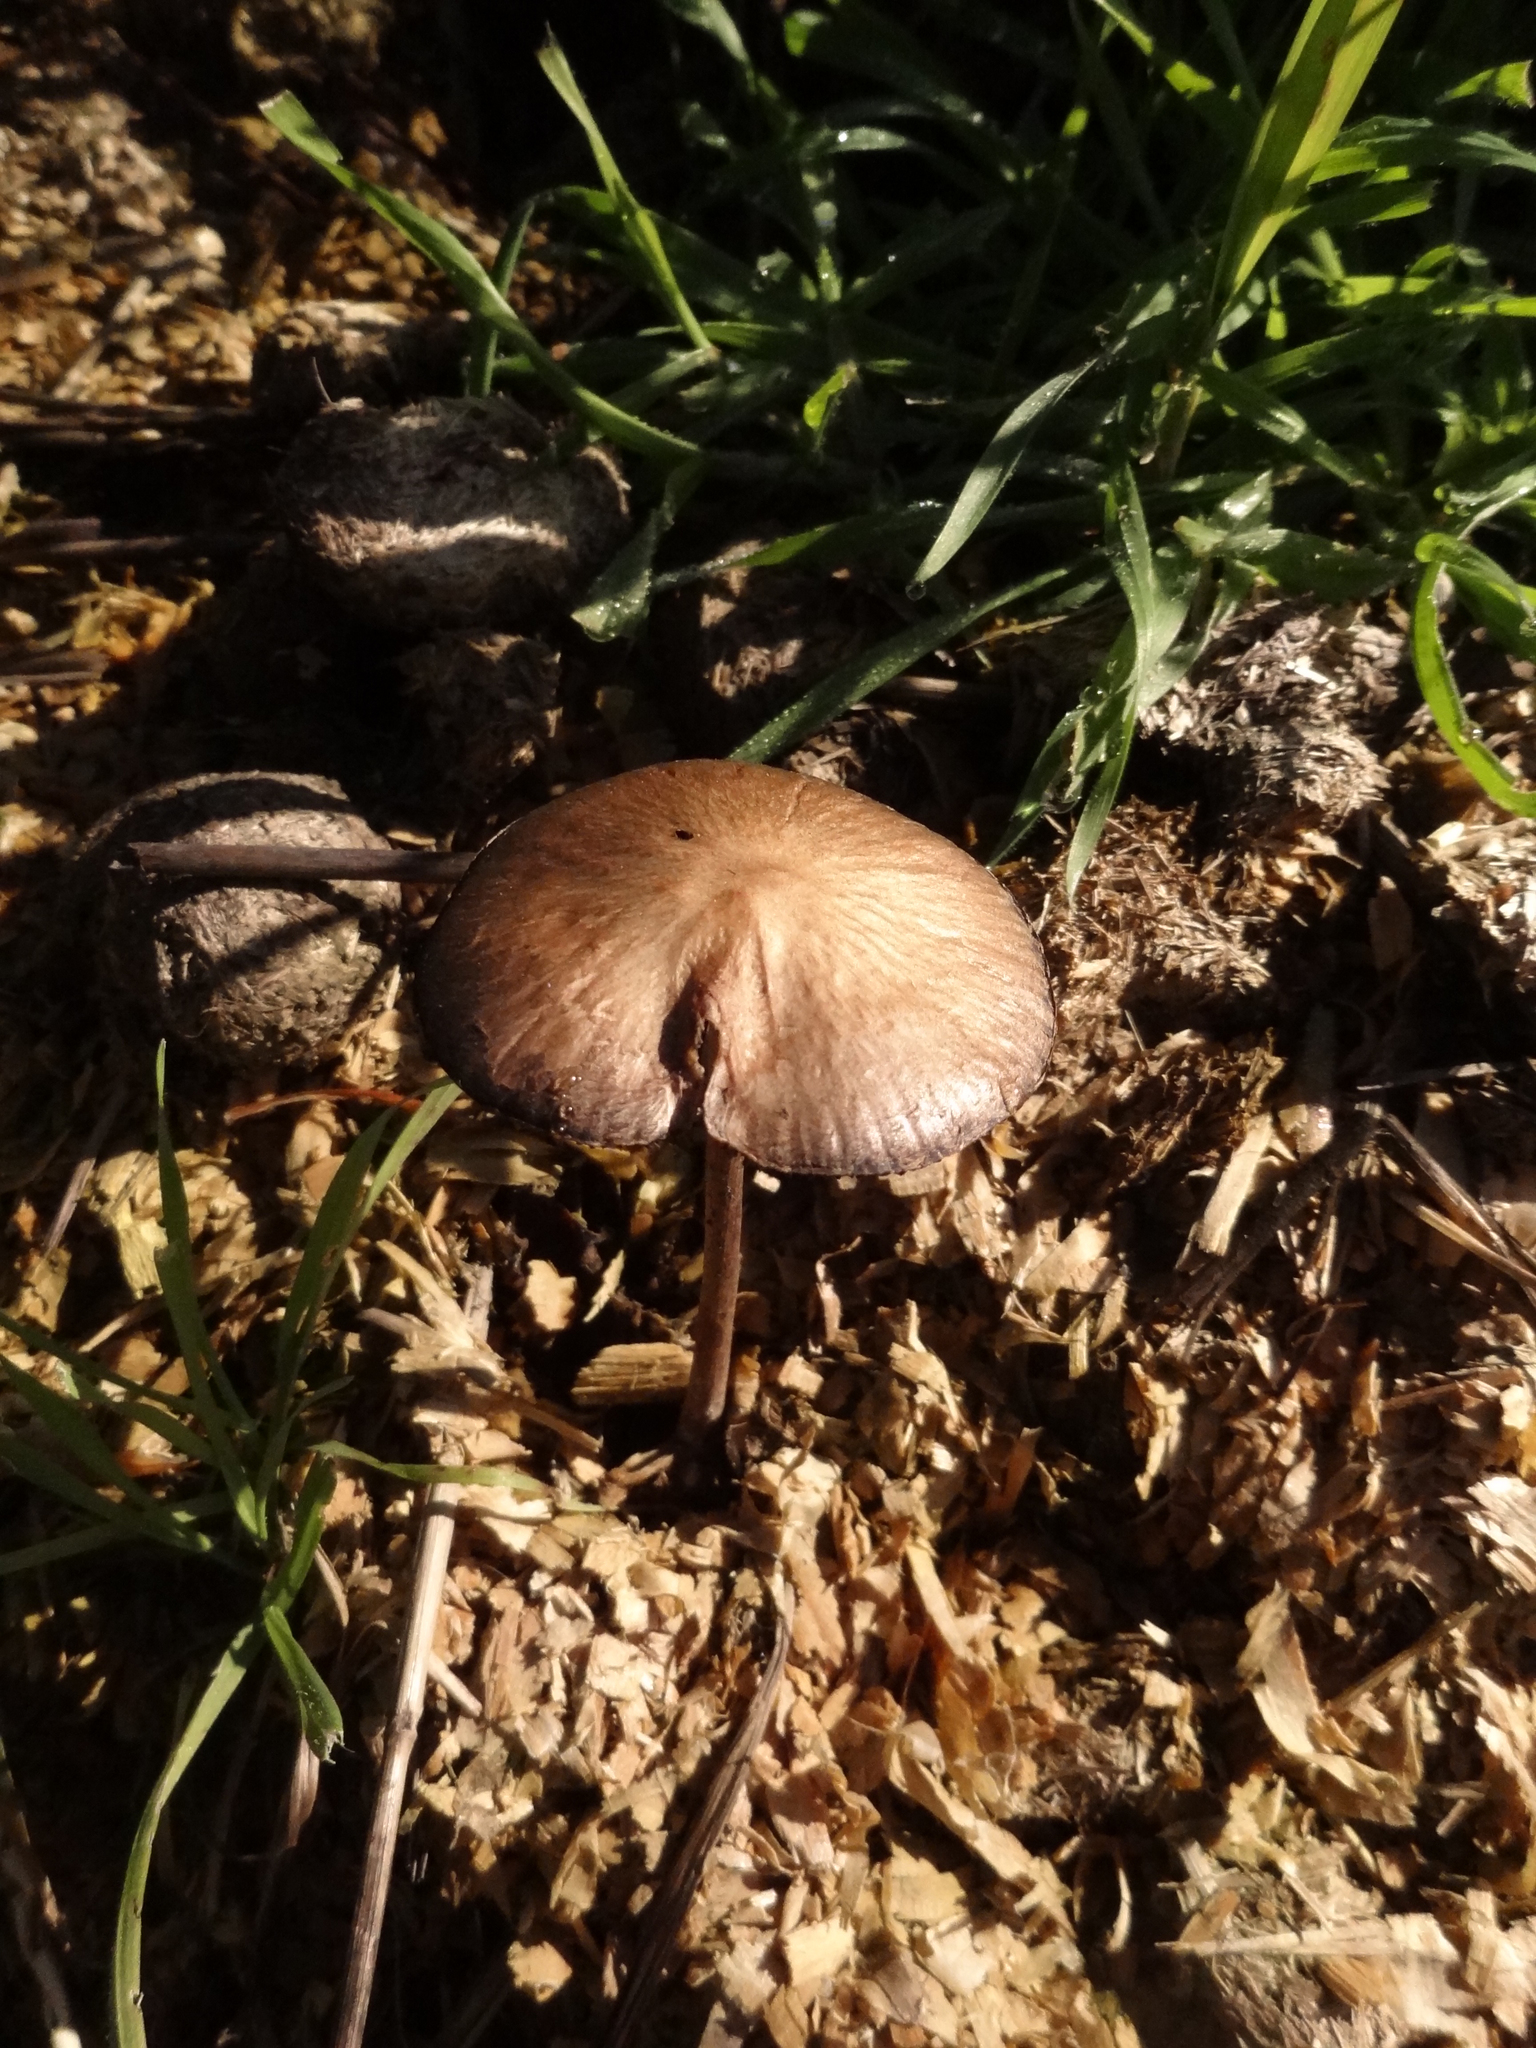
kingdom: Fungi
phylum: Basidiomycota
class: Agaricomycetes
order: Agaricales
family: Bolbitiaceae
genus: Panaeolus
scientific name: Panaeolus papilionaceus
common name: Petticoat mottlegill
